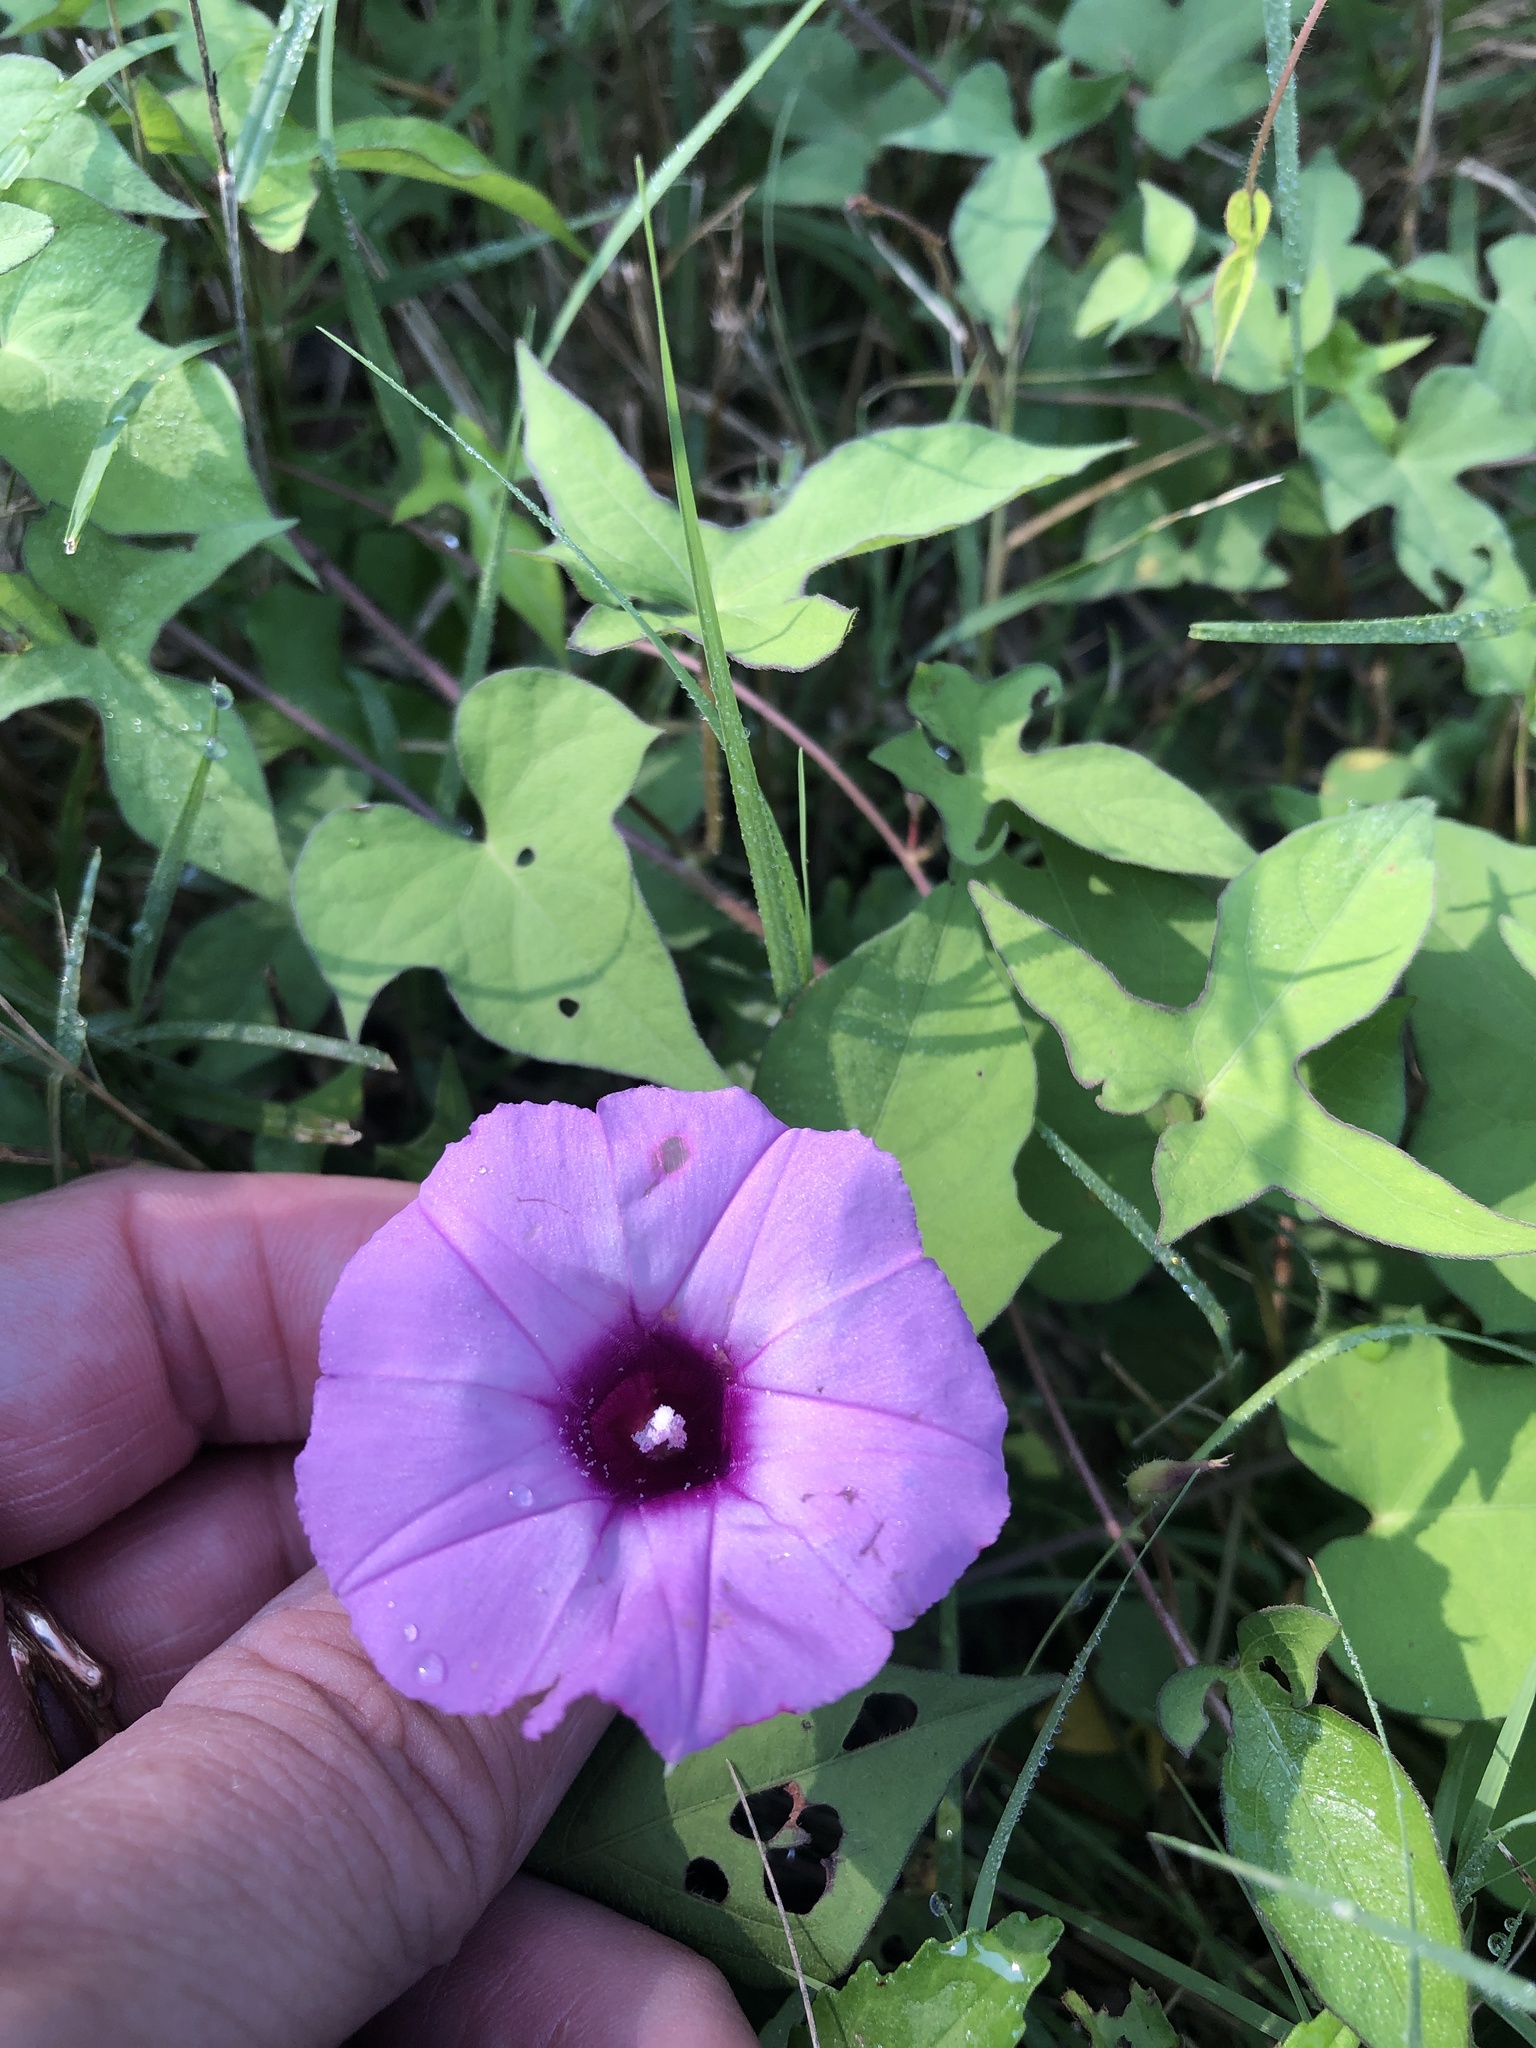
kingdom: Plantae
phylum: Tracheophyta
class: Magnoliopsida
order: Solanales
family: Convolvulaceae
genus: Ipomoea
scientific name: Ipomoea cordatotriloba
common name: Cotton morning glory
